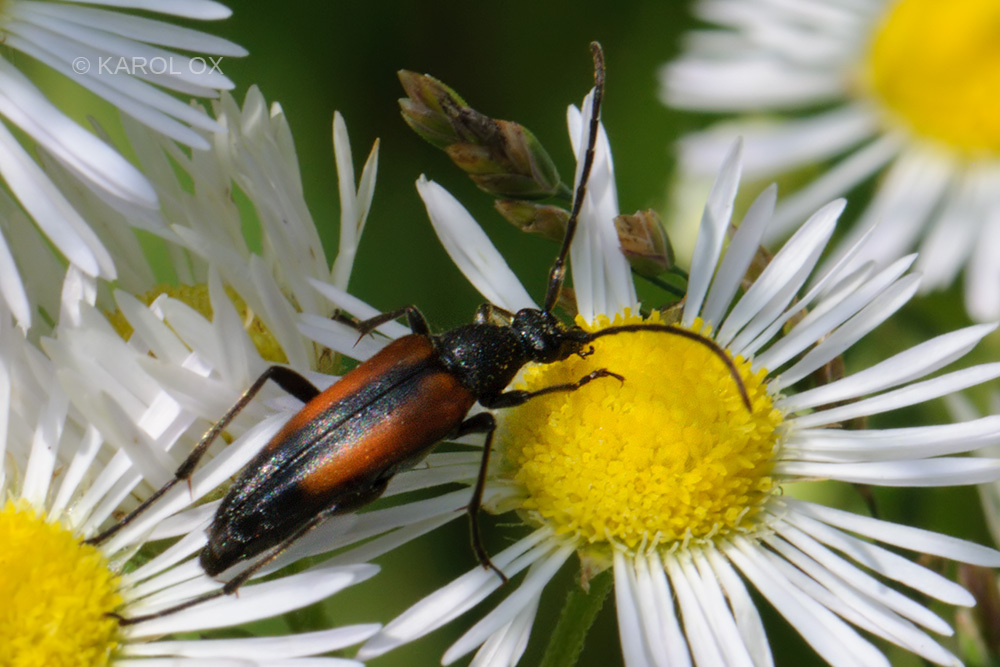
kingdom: Animalia
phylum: Arthropoda
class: Insecta
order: Coleoptera
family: Cerambycidae
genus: Stenurella
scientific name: Stenurella melanura
